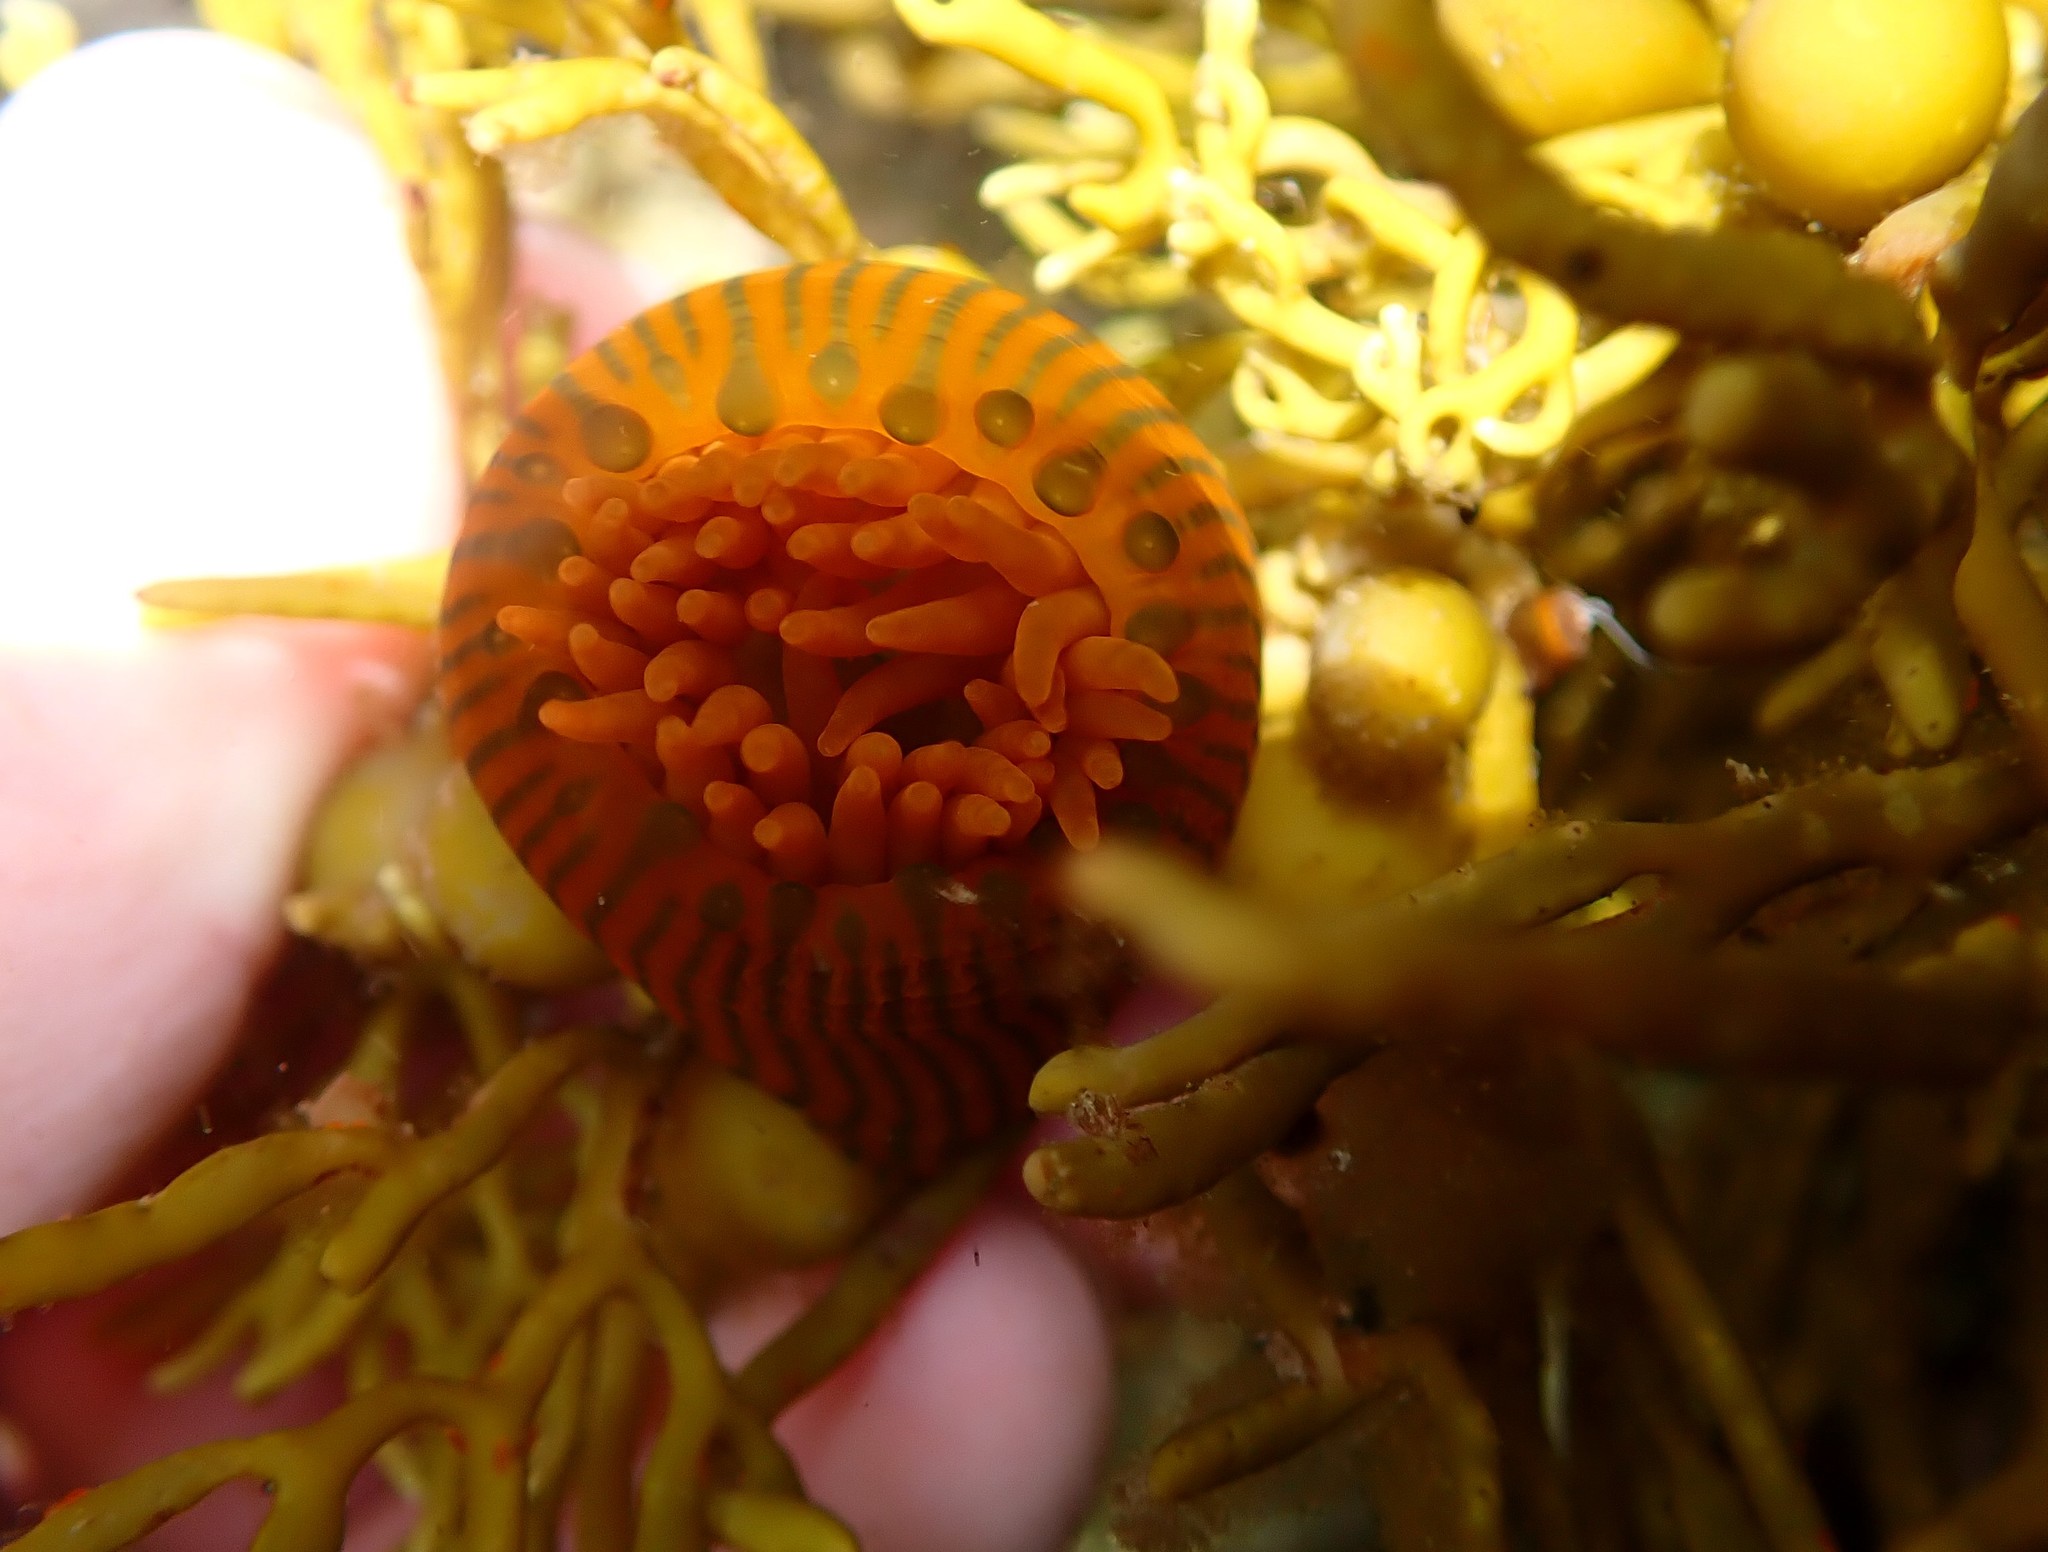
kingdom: Animalia
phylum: Cnidaria
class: Anthozoa
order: Actiniaria
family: Actiniidae
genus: Epiactis
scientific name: Epiactis
